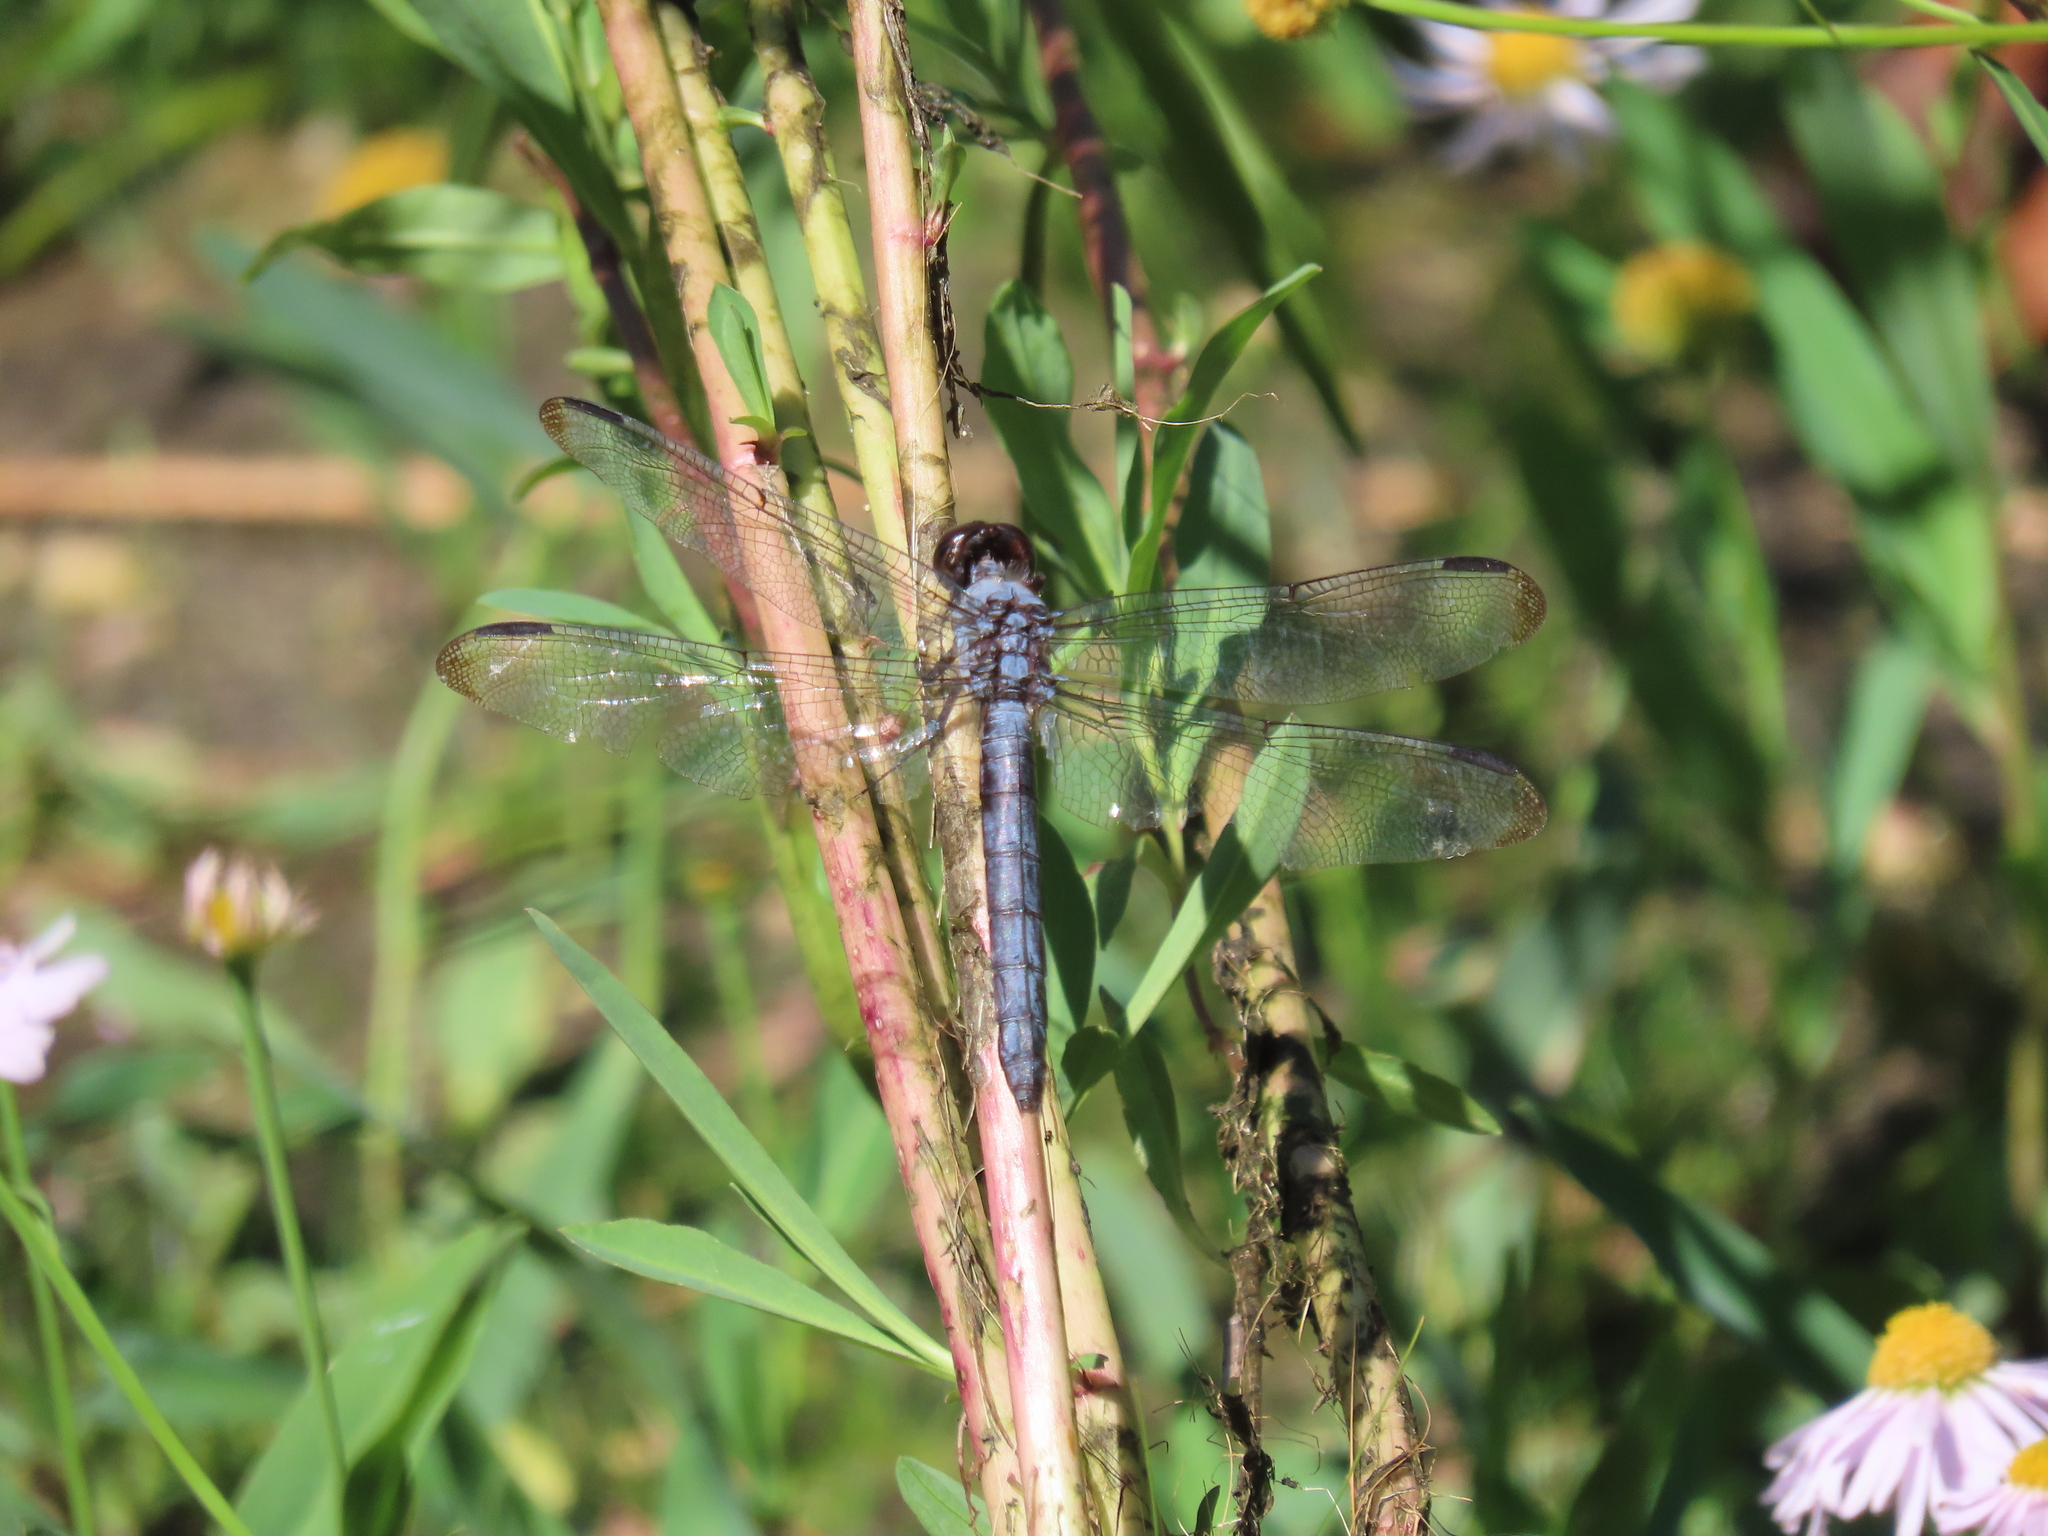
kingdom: Animalia
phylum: Arthropoda
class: Insecta
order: Odonata
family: Libellulidae
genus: Libellula
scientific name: Libellula incesta
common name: Slaty skimmer
